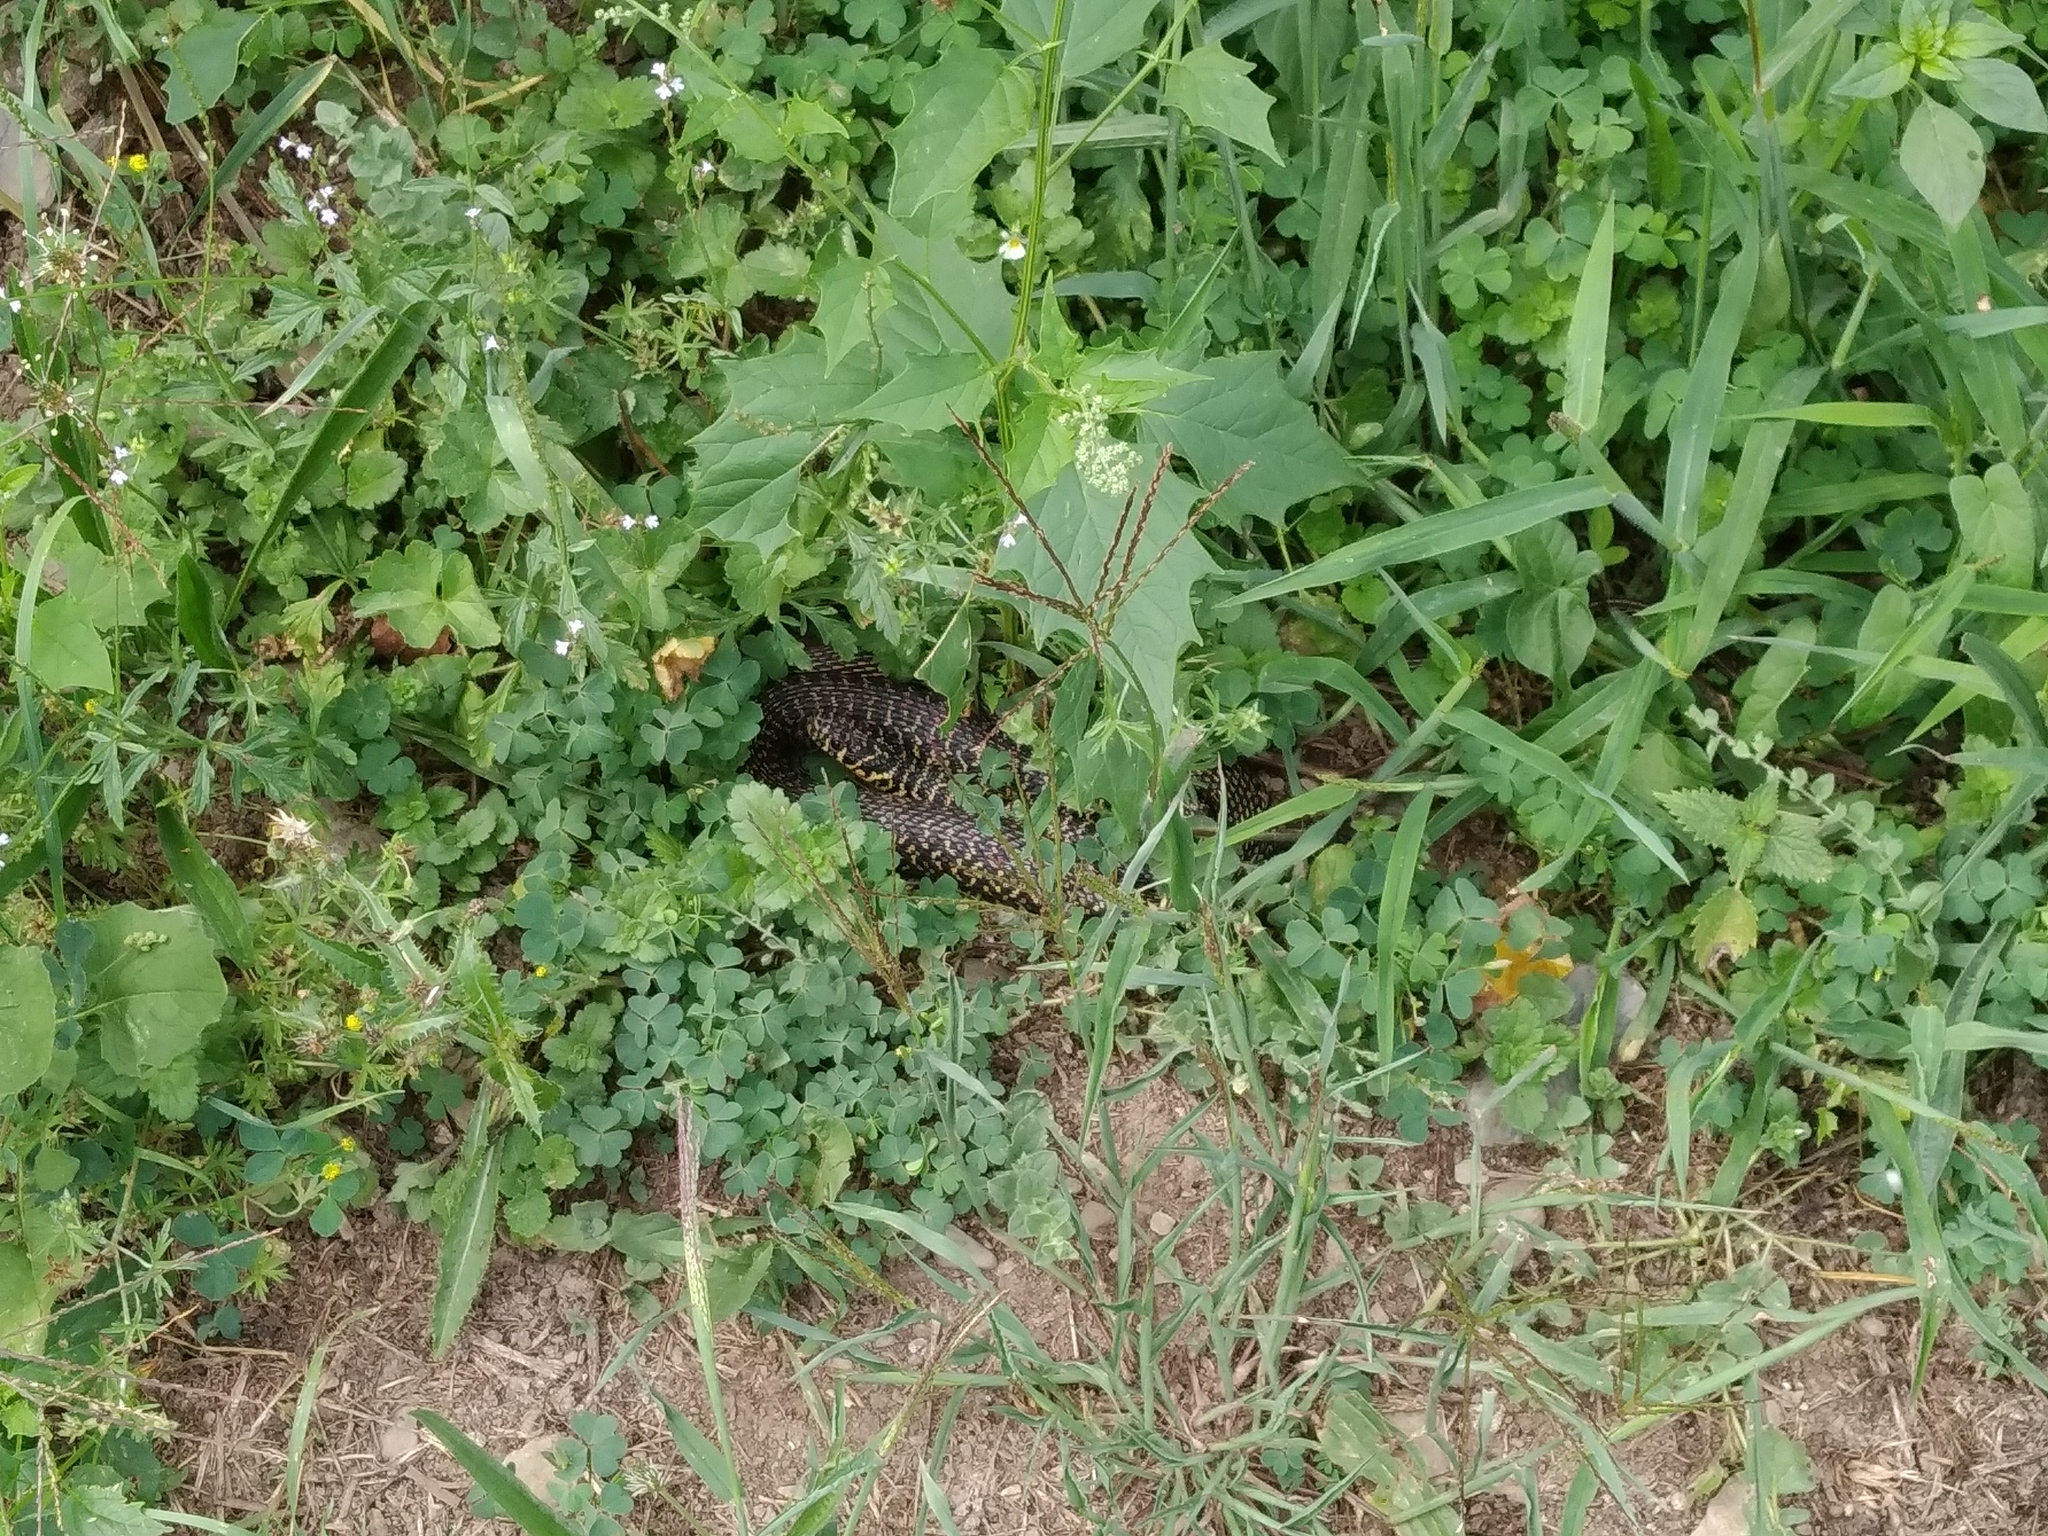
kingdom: Animalia
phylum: Chordata
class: Squamata
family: Colubridae
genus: Hierophis
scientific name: Hierophis viridiflavus
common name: Green whip snake
